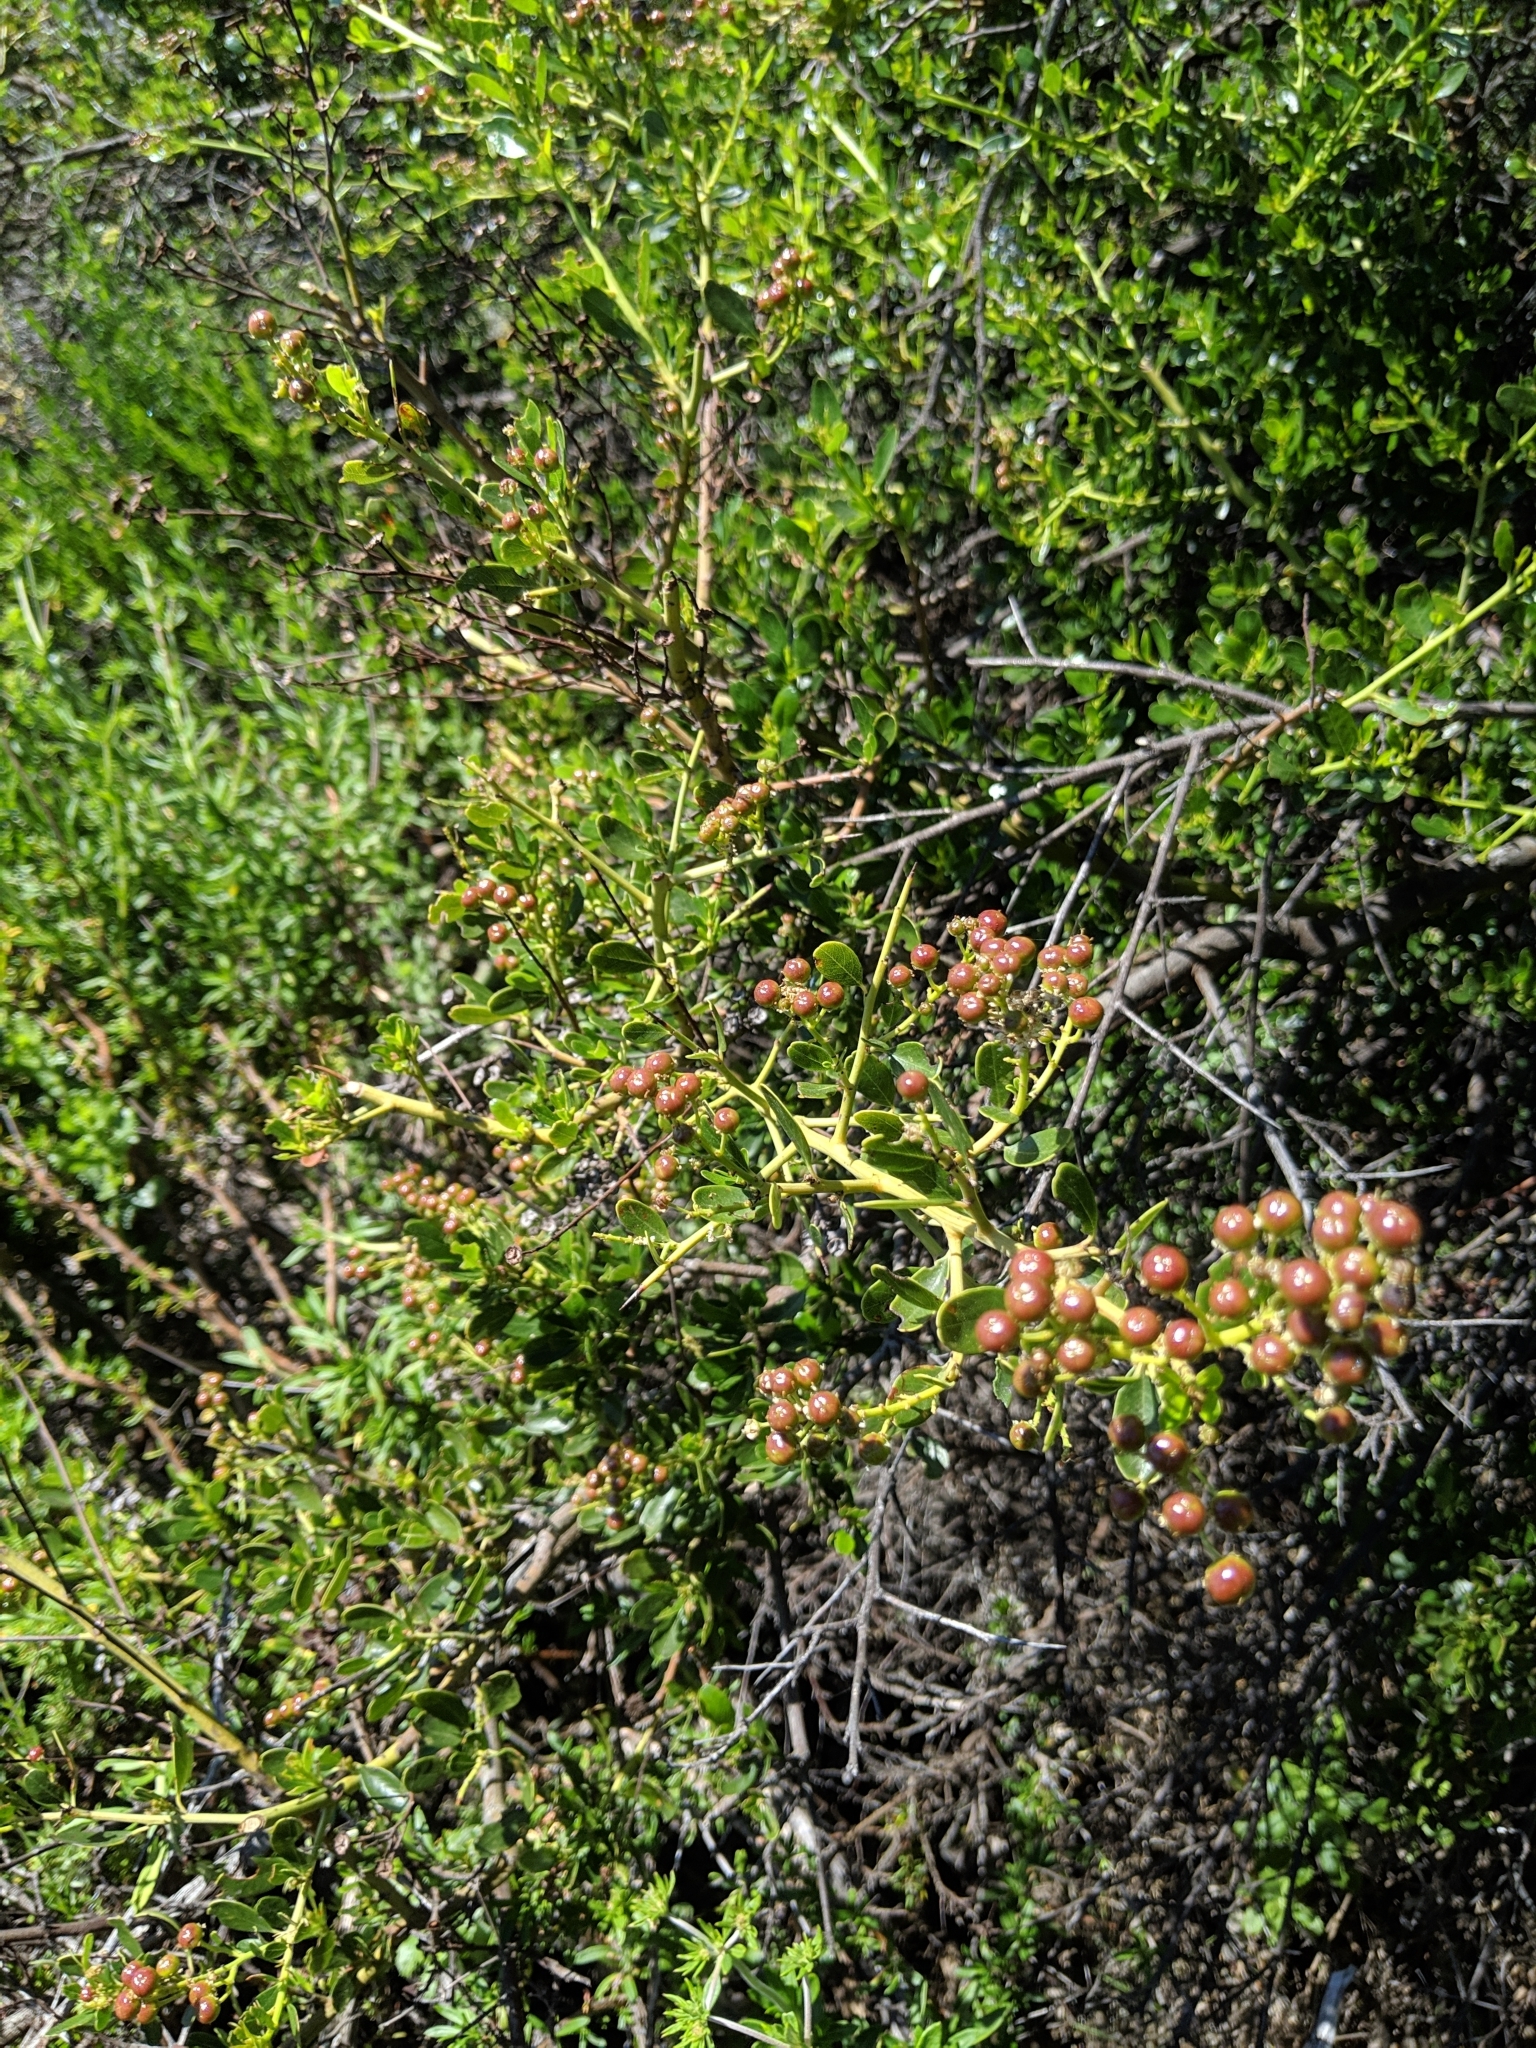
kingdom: Plantae
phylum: Tracheophyta
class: Magnoliopsida
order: Rosales
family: Rhamnaceae
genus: Ceanothus
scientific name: Ceanothus spinosus
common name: Greenbark whitethorn
